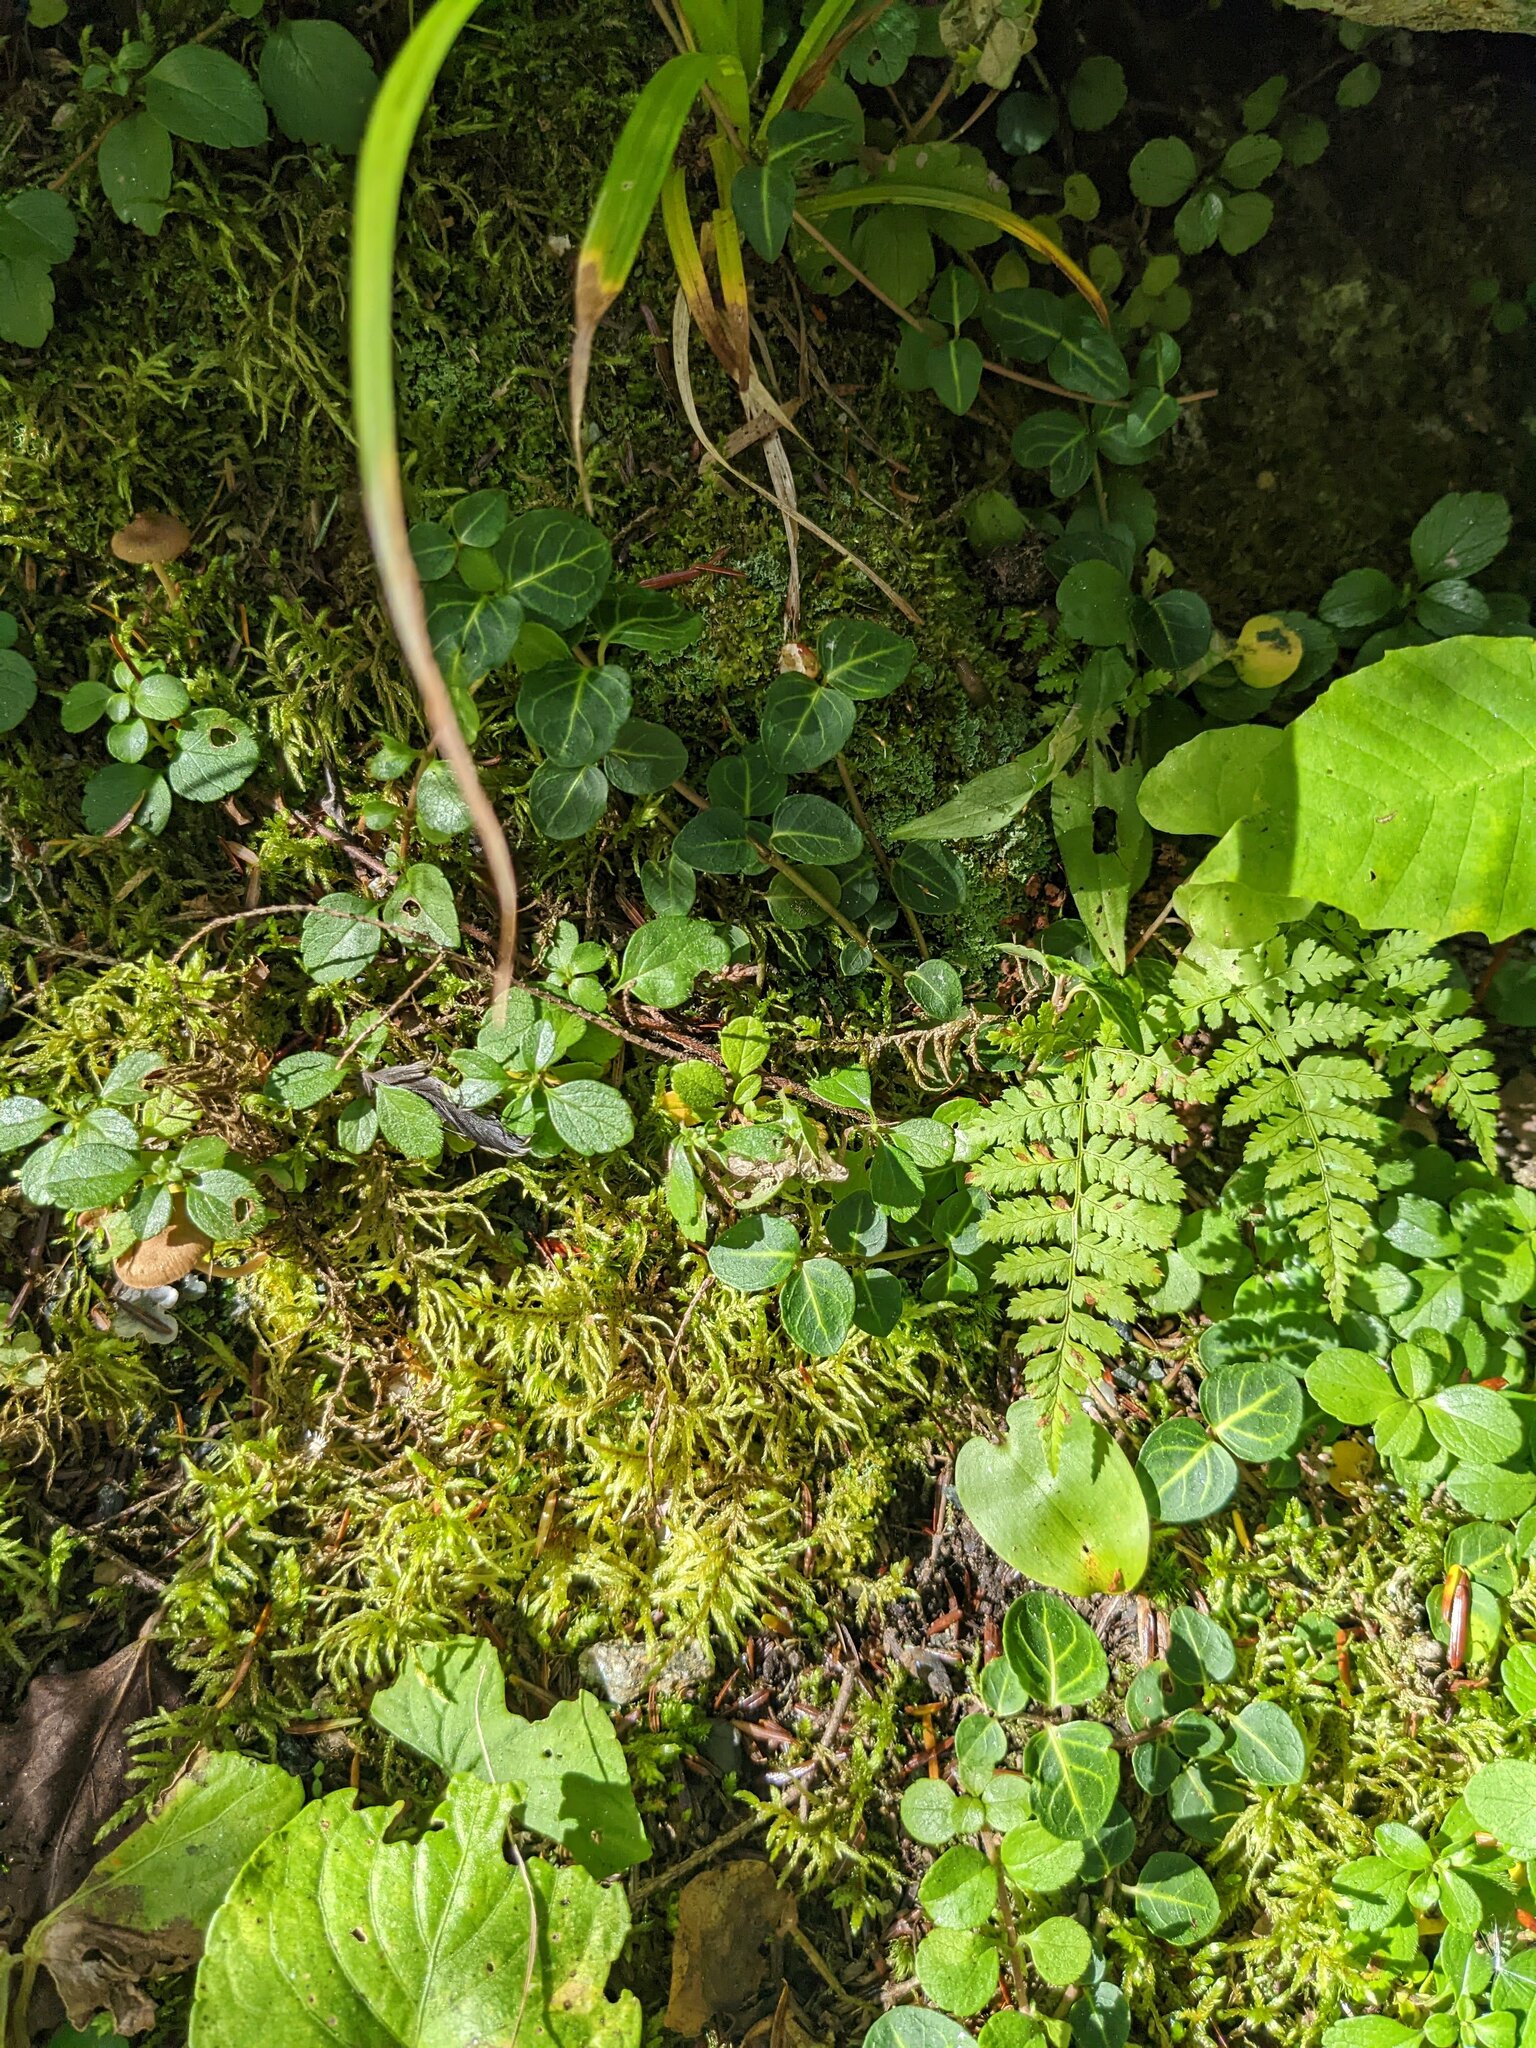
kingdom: Plantae
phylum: Tracheophyta
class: Magnoliopsida
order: Gentianales
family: Rubiaceae
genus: Mitchella
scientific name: Mitchella repens
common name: Partridge-berry
